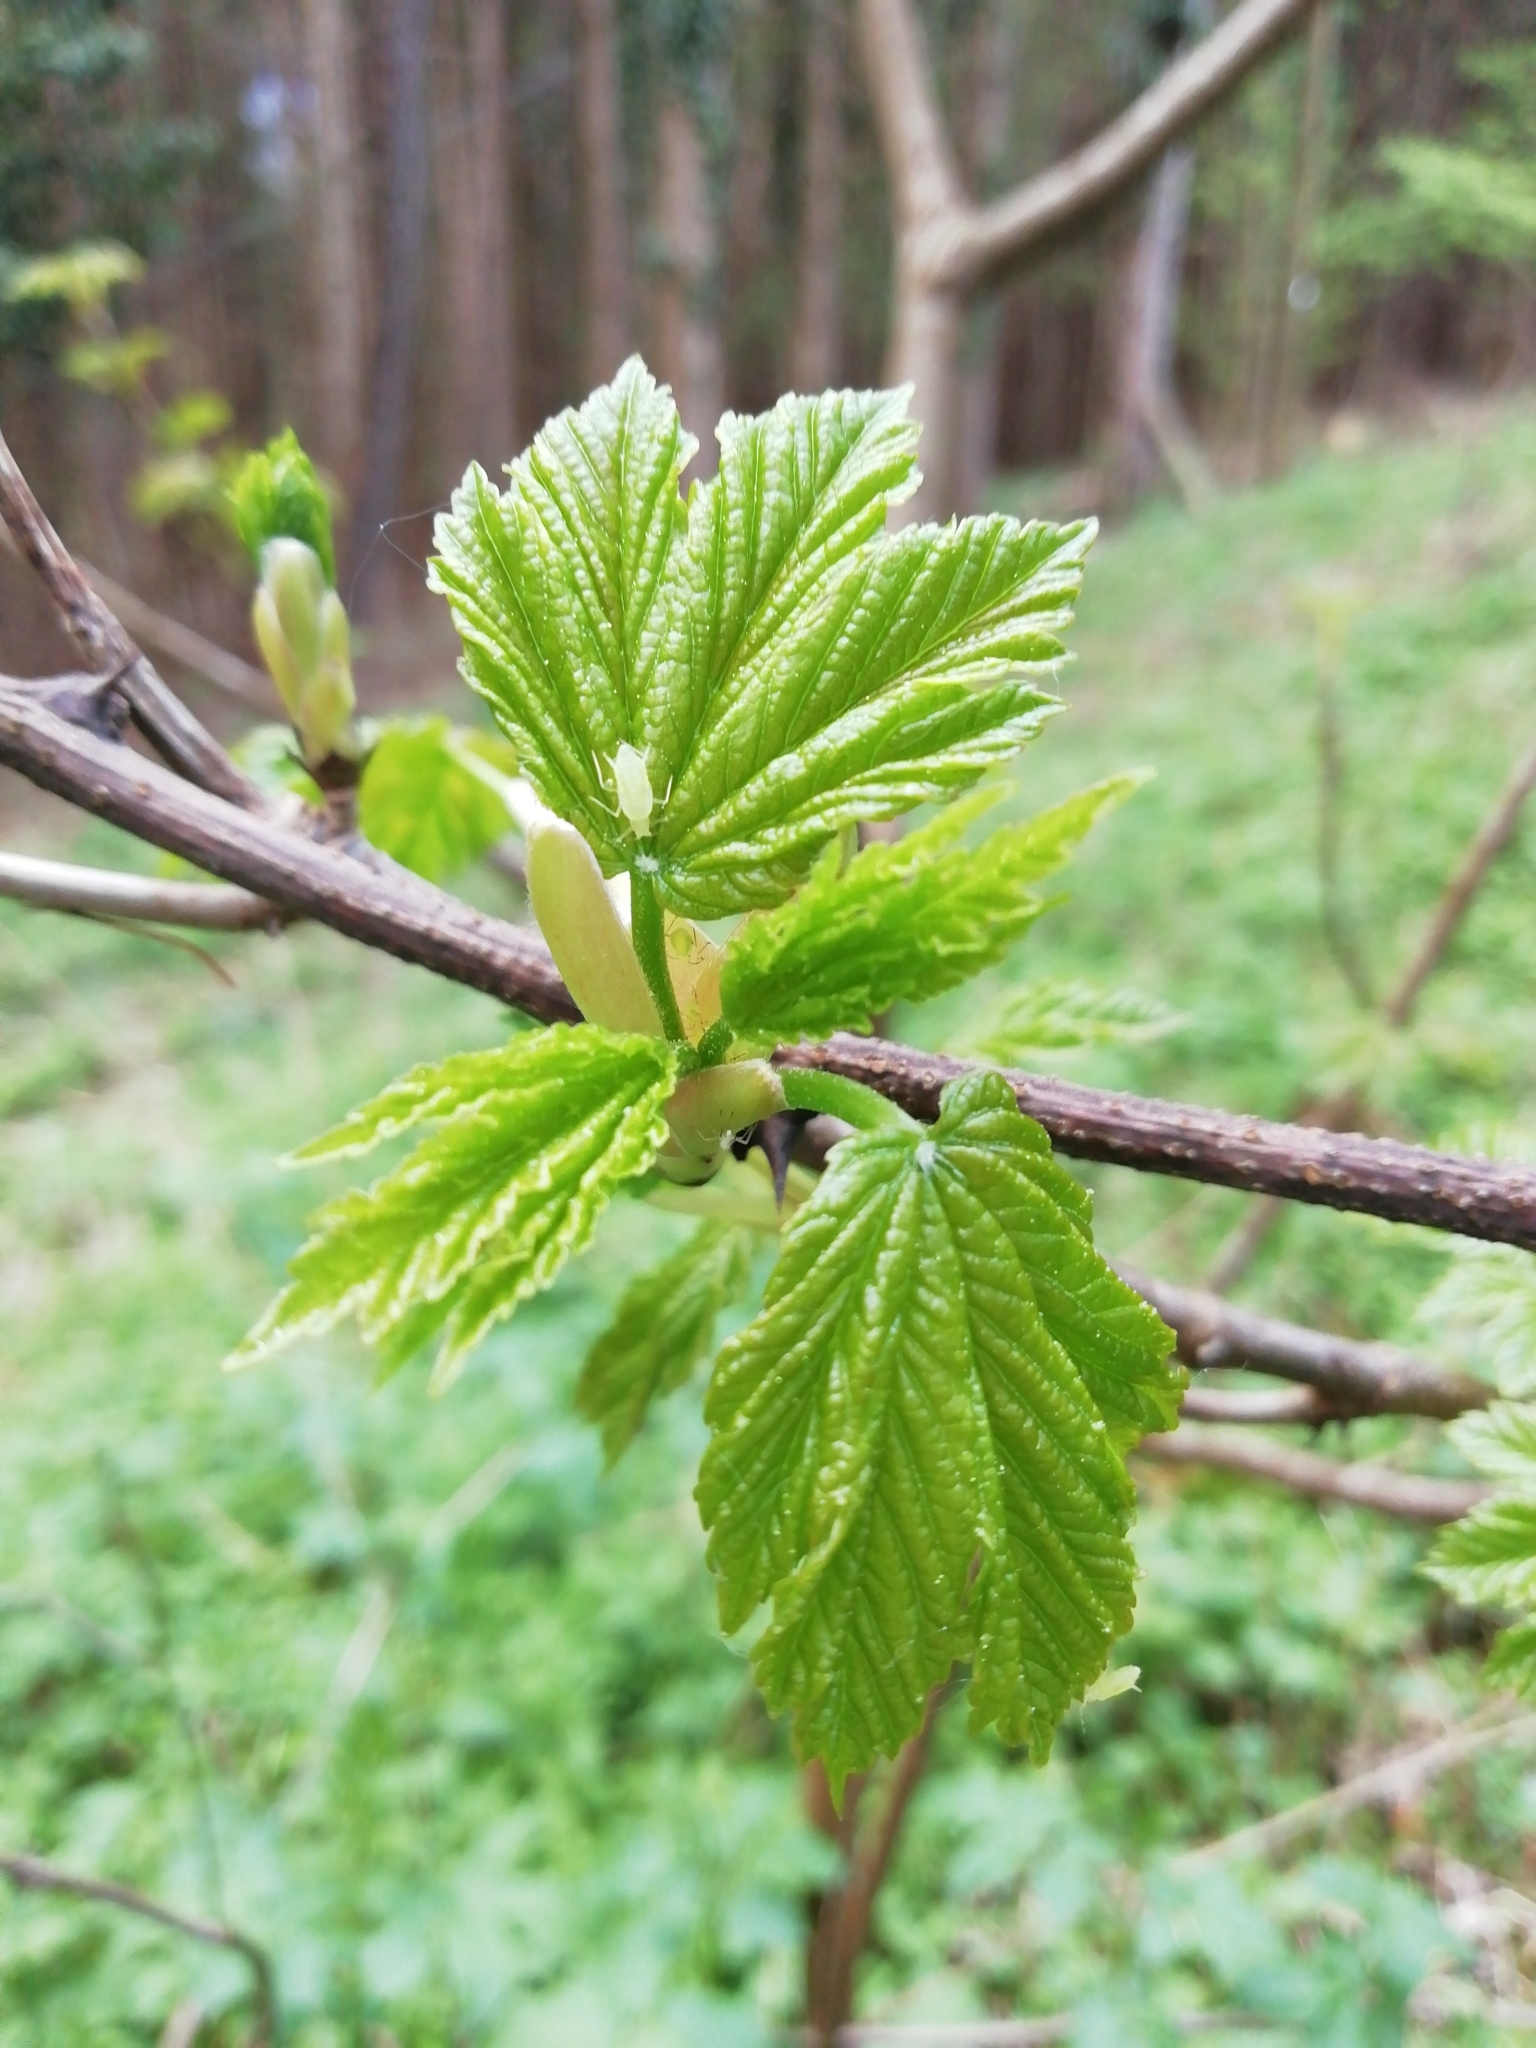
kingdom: Plantae
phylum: Tracheophyta
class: Magnoliopsida
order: Sapindales
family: Sapindaceae
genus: Acer
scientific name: Acer pseudoplatanus
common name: Sycamore
